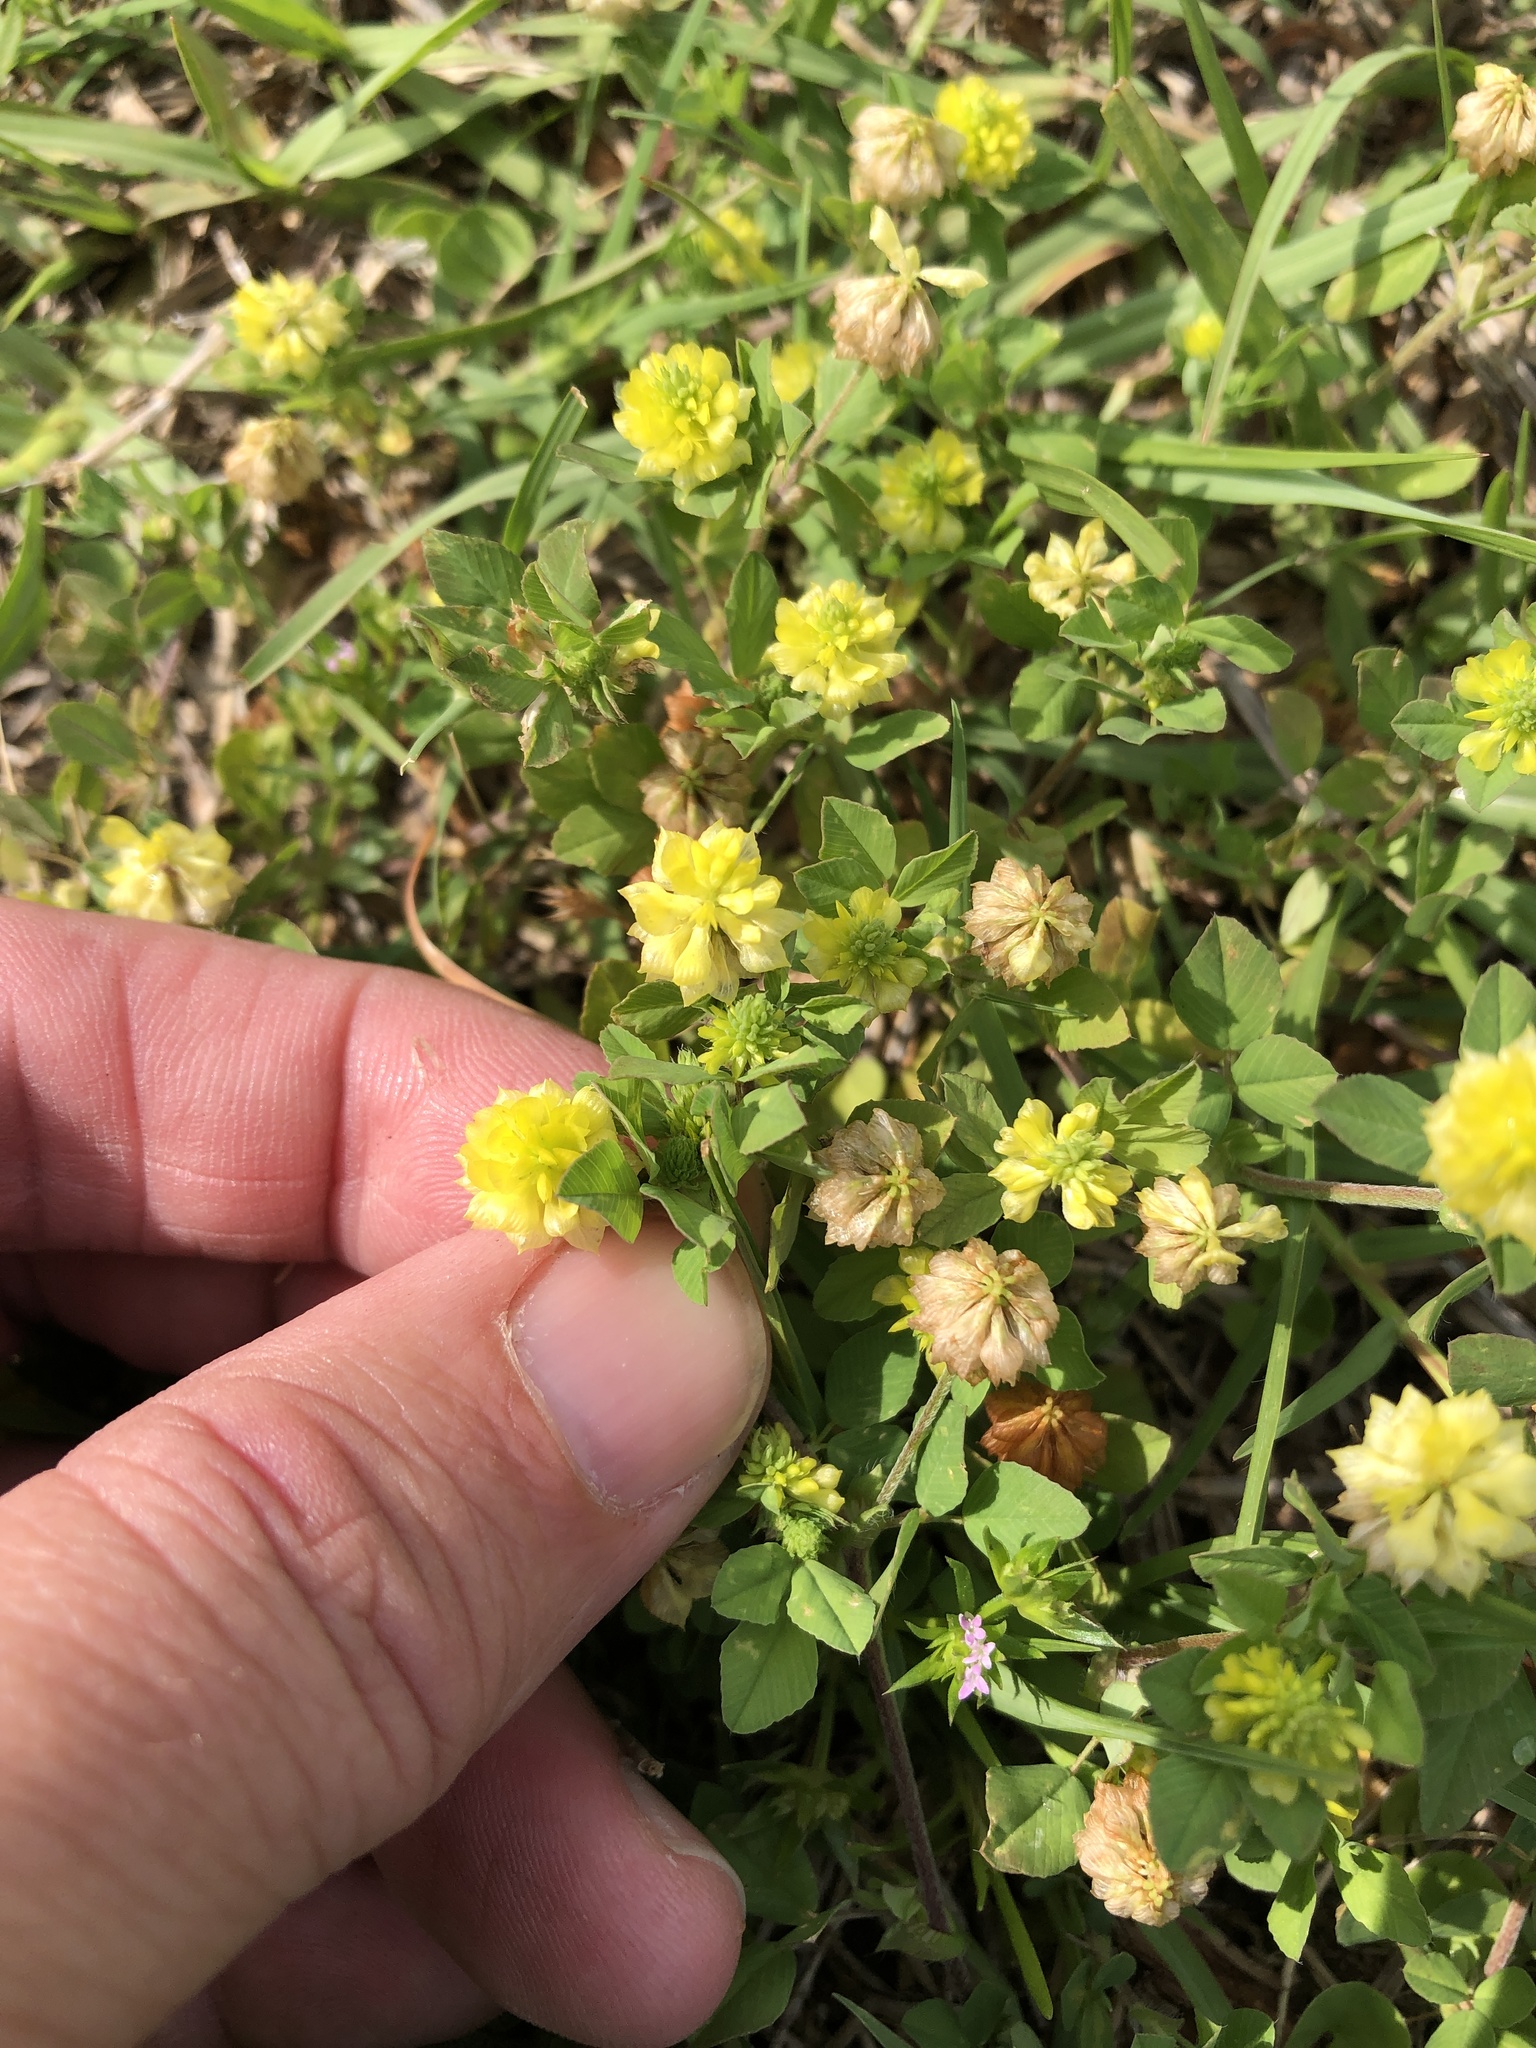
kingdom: Plantae
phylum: Tracheophyta
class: Magnoliopsida
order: Fabales
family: Fabaceae
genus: Trifolium
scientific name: Trifolium campestre
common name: Field clover
